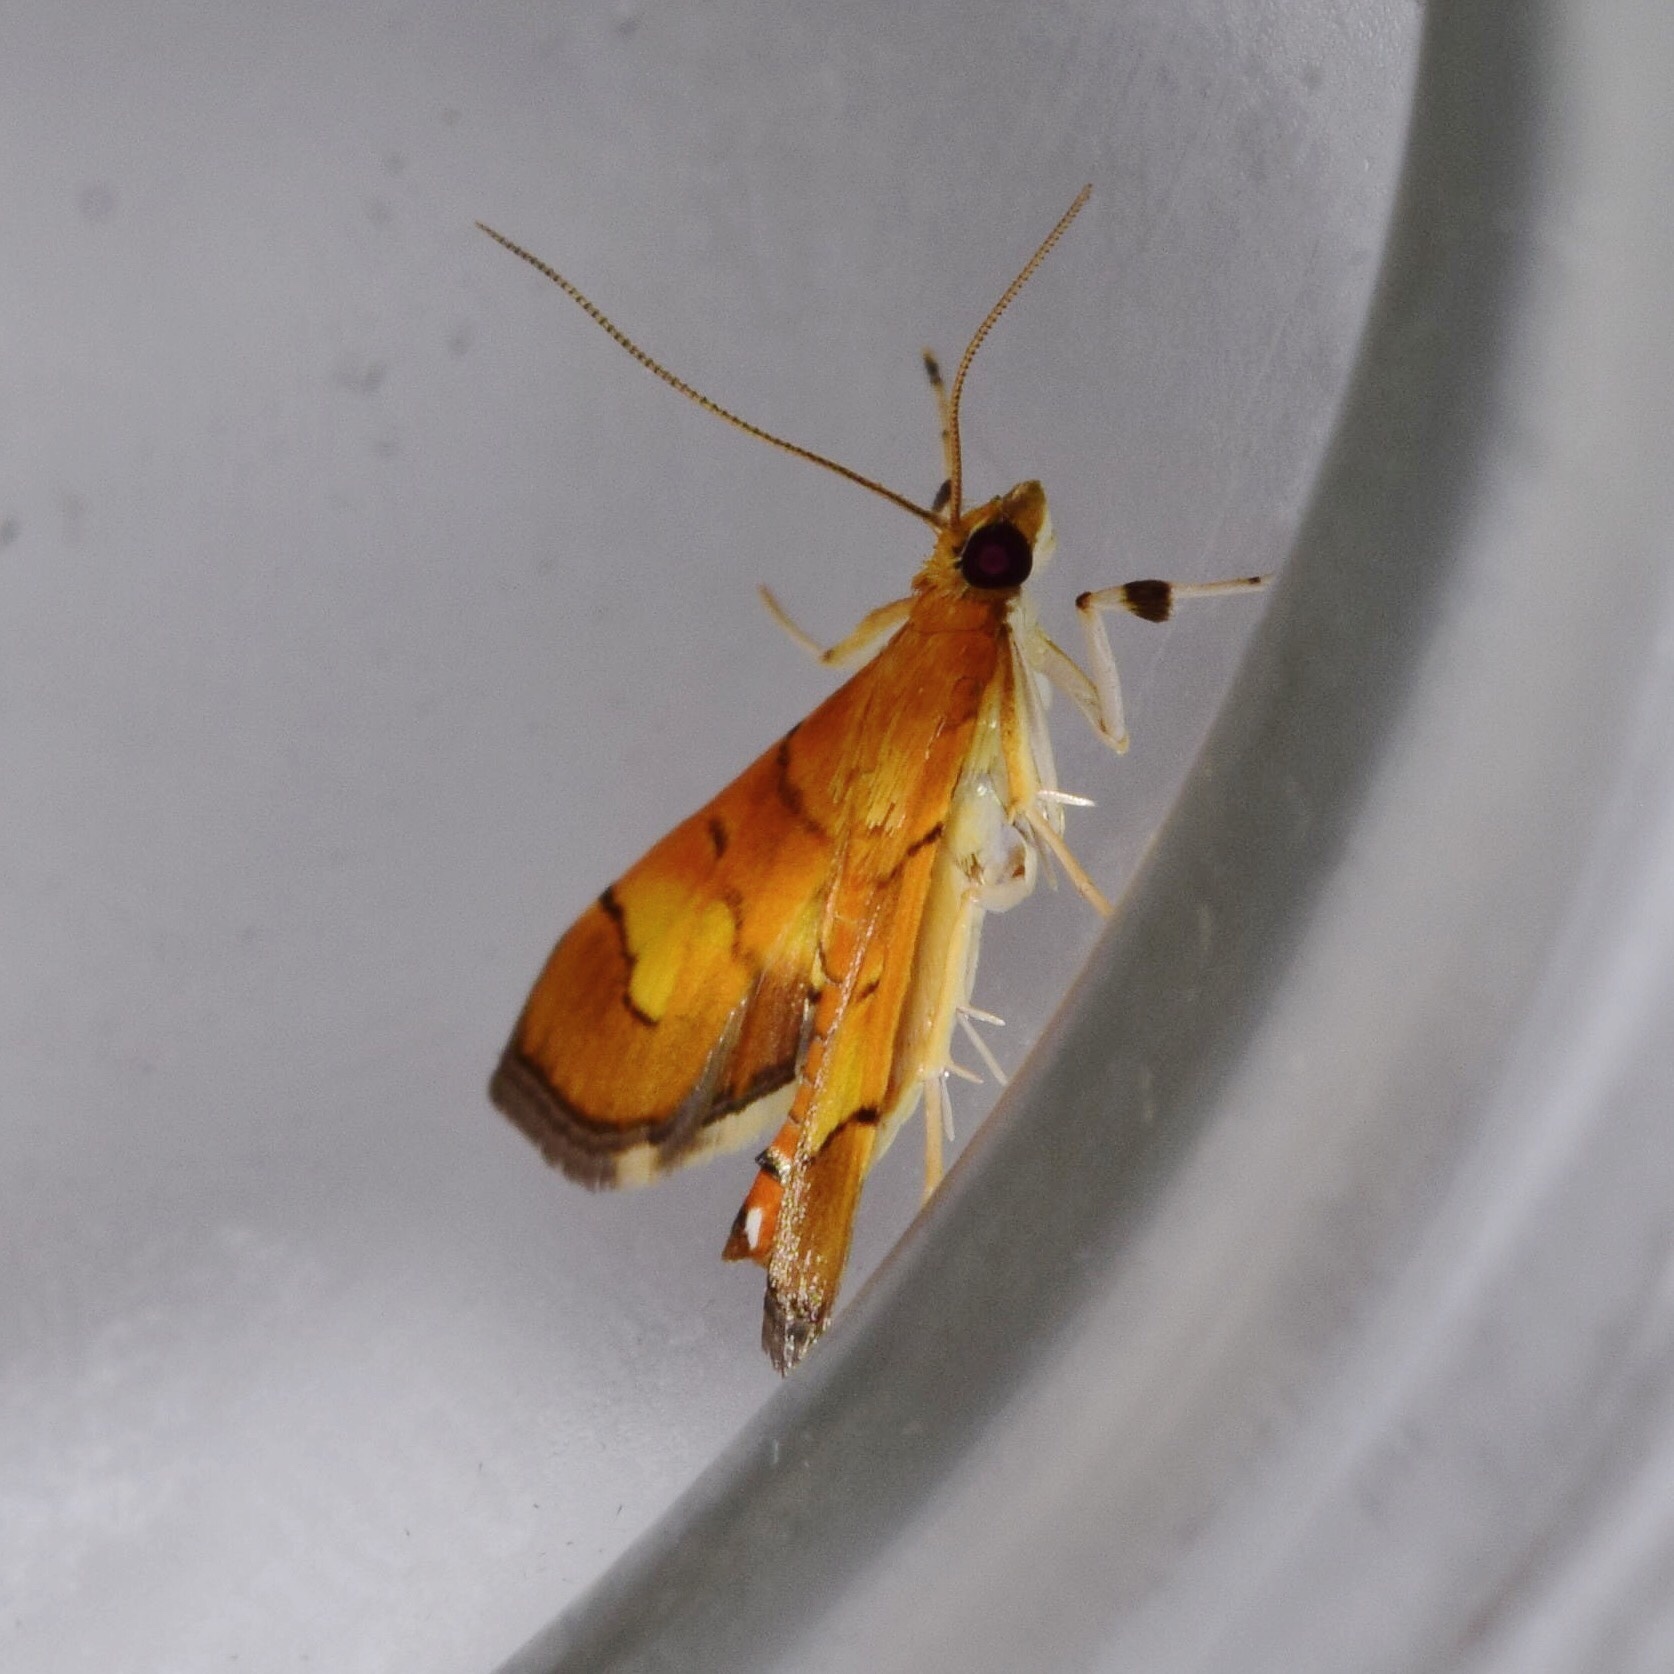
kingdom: Animalia
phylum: Arthropoda
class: Insecta
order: Lepidoptera
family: Crambidae
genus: Orphanostigma
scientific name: Orphanostigma abruptalis
